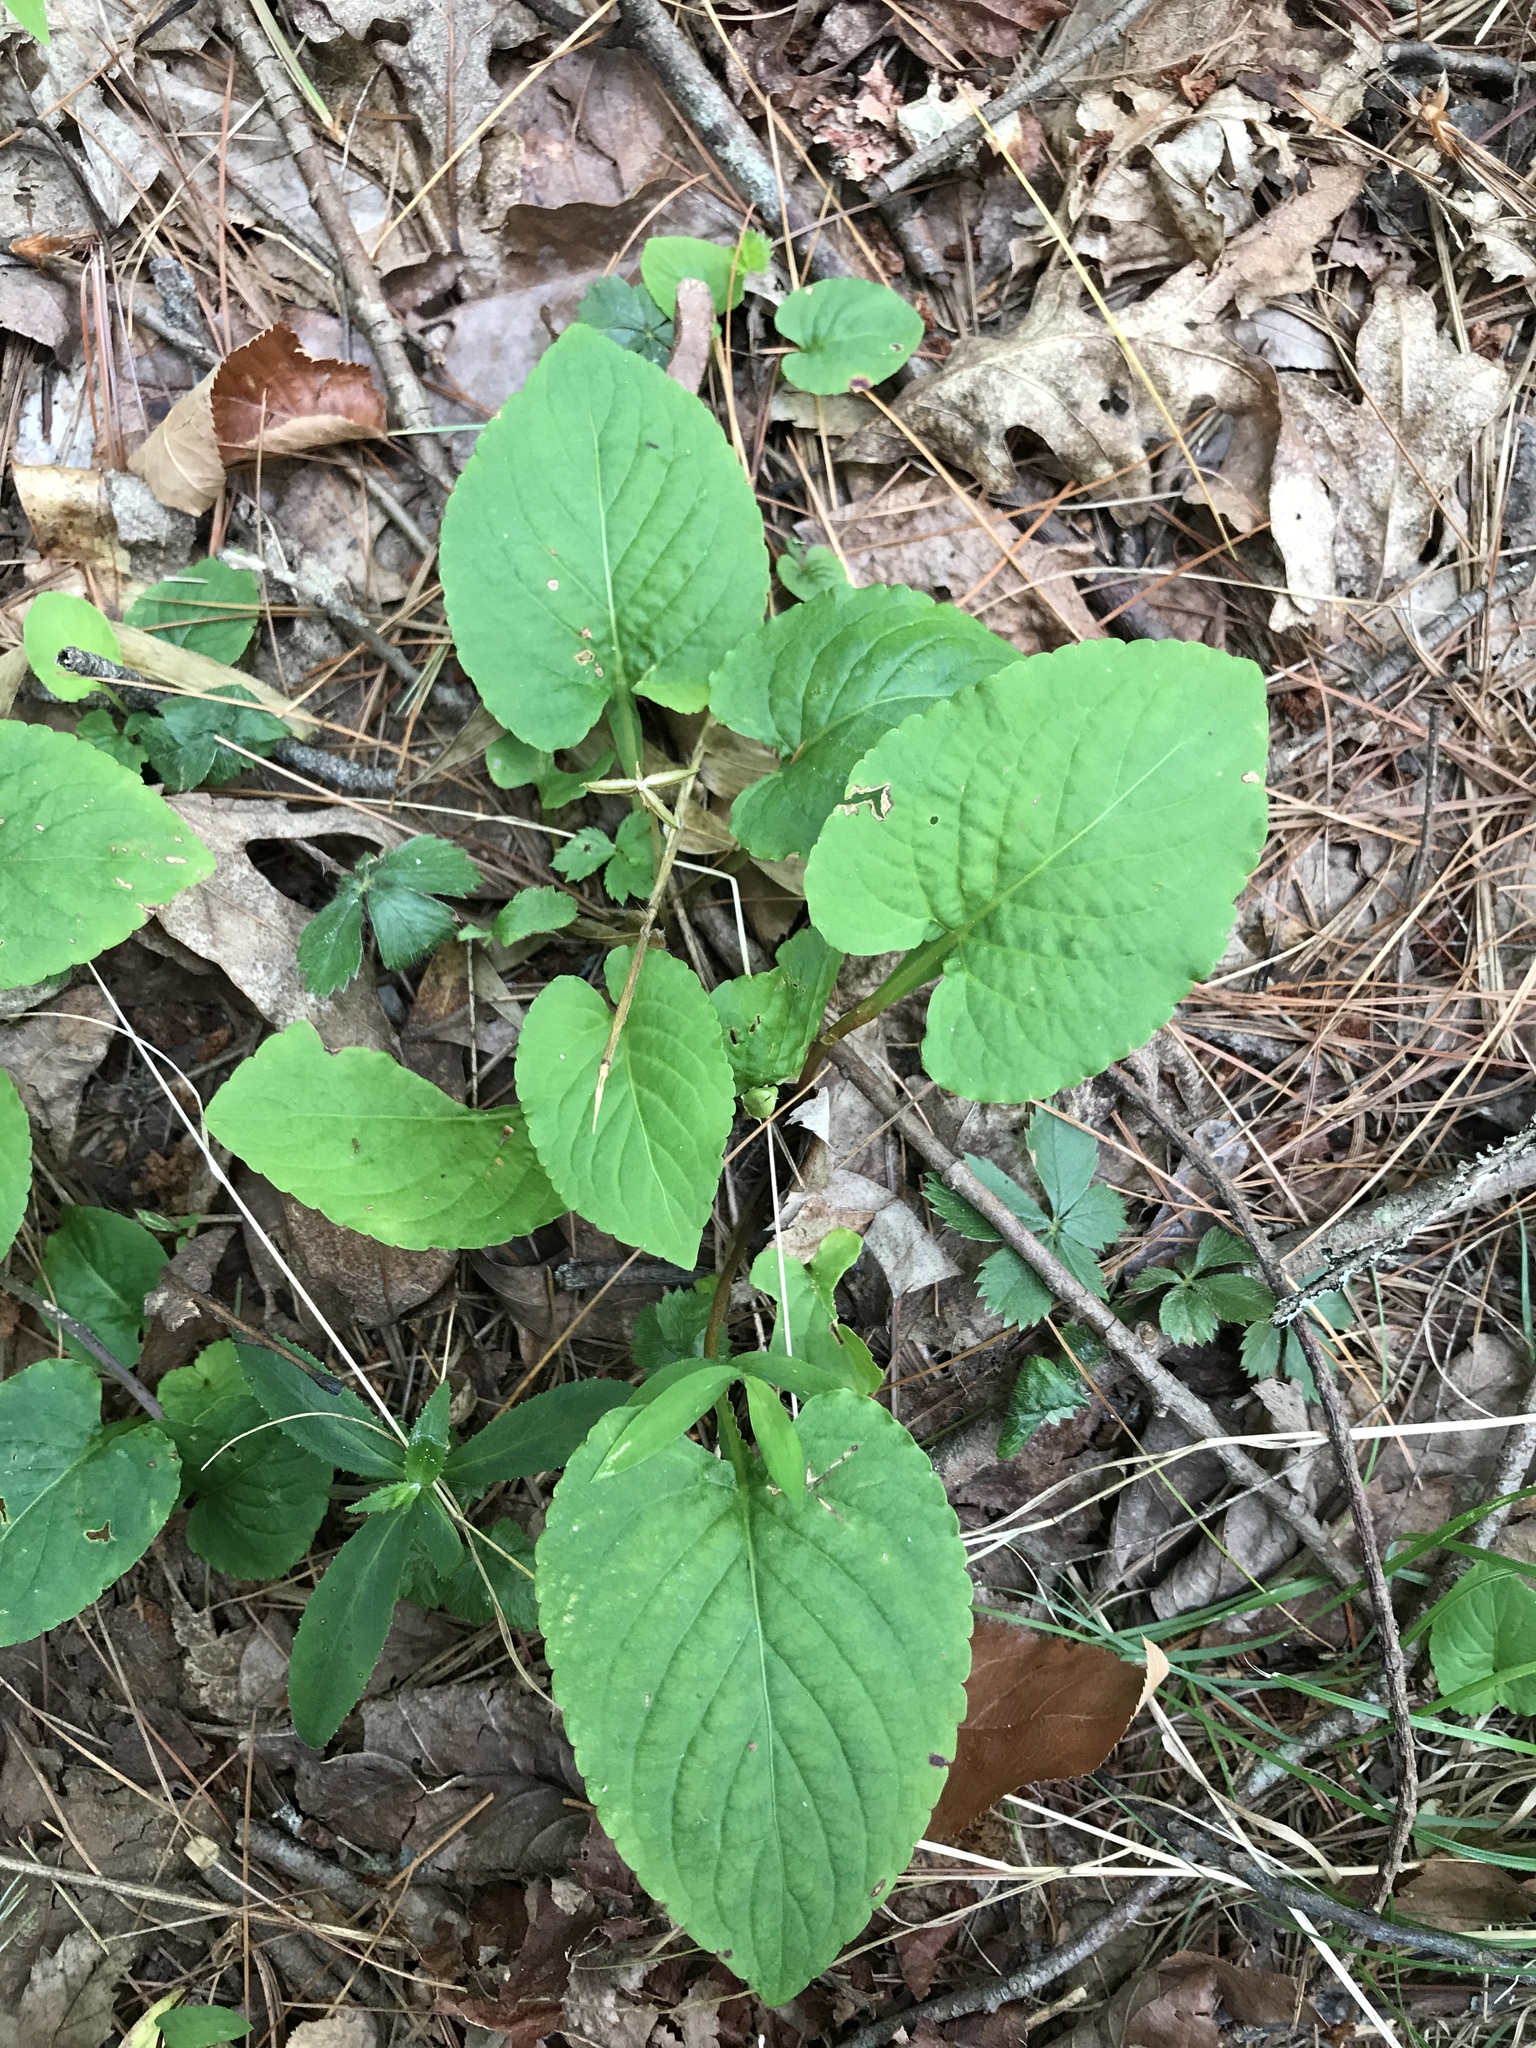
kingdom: Plantae
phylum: Tracheophyta
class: Magnoliopsida
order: Malpighiales
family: Violaceae
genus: Viola
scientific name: Viola primulifolia
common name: Primrose-leaf violet
